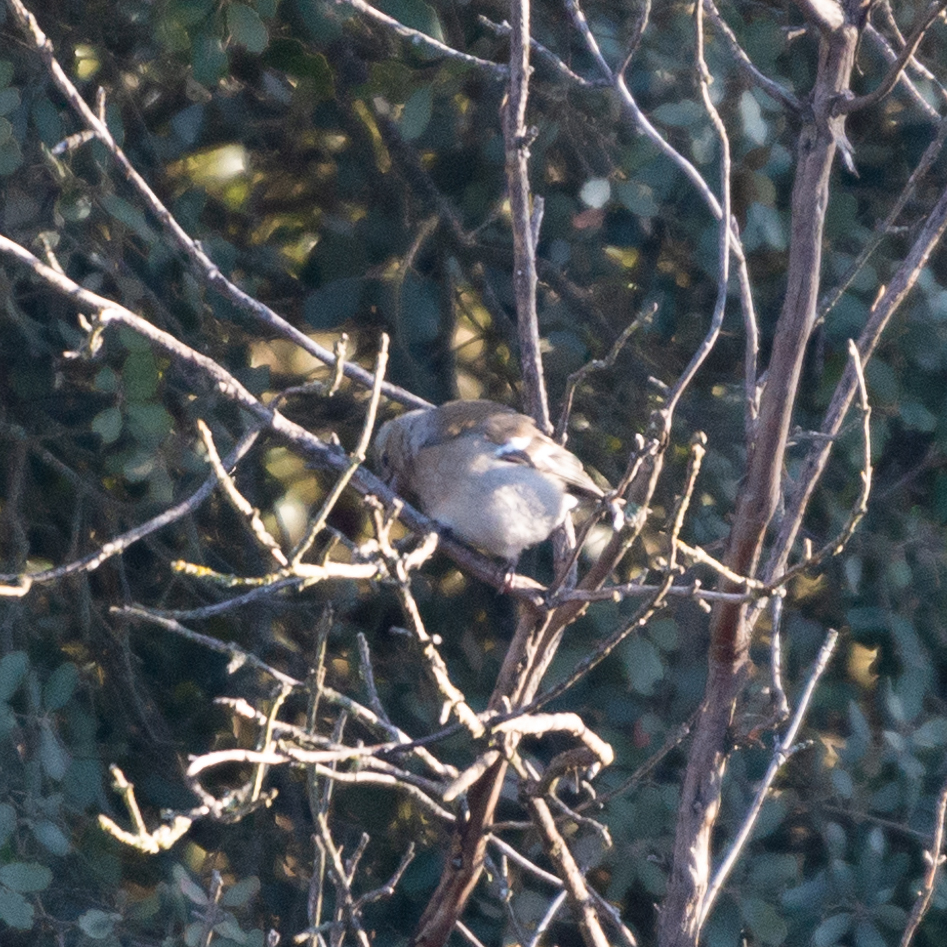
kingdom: Animalia
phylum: Chordata
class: Aves
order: Passeriformes
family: Fringillidae
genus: Fringilla
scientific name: Fringilla coelebs
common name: Common chaffinch
